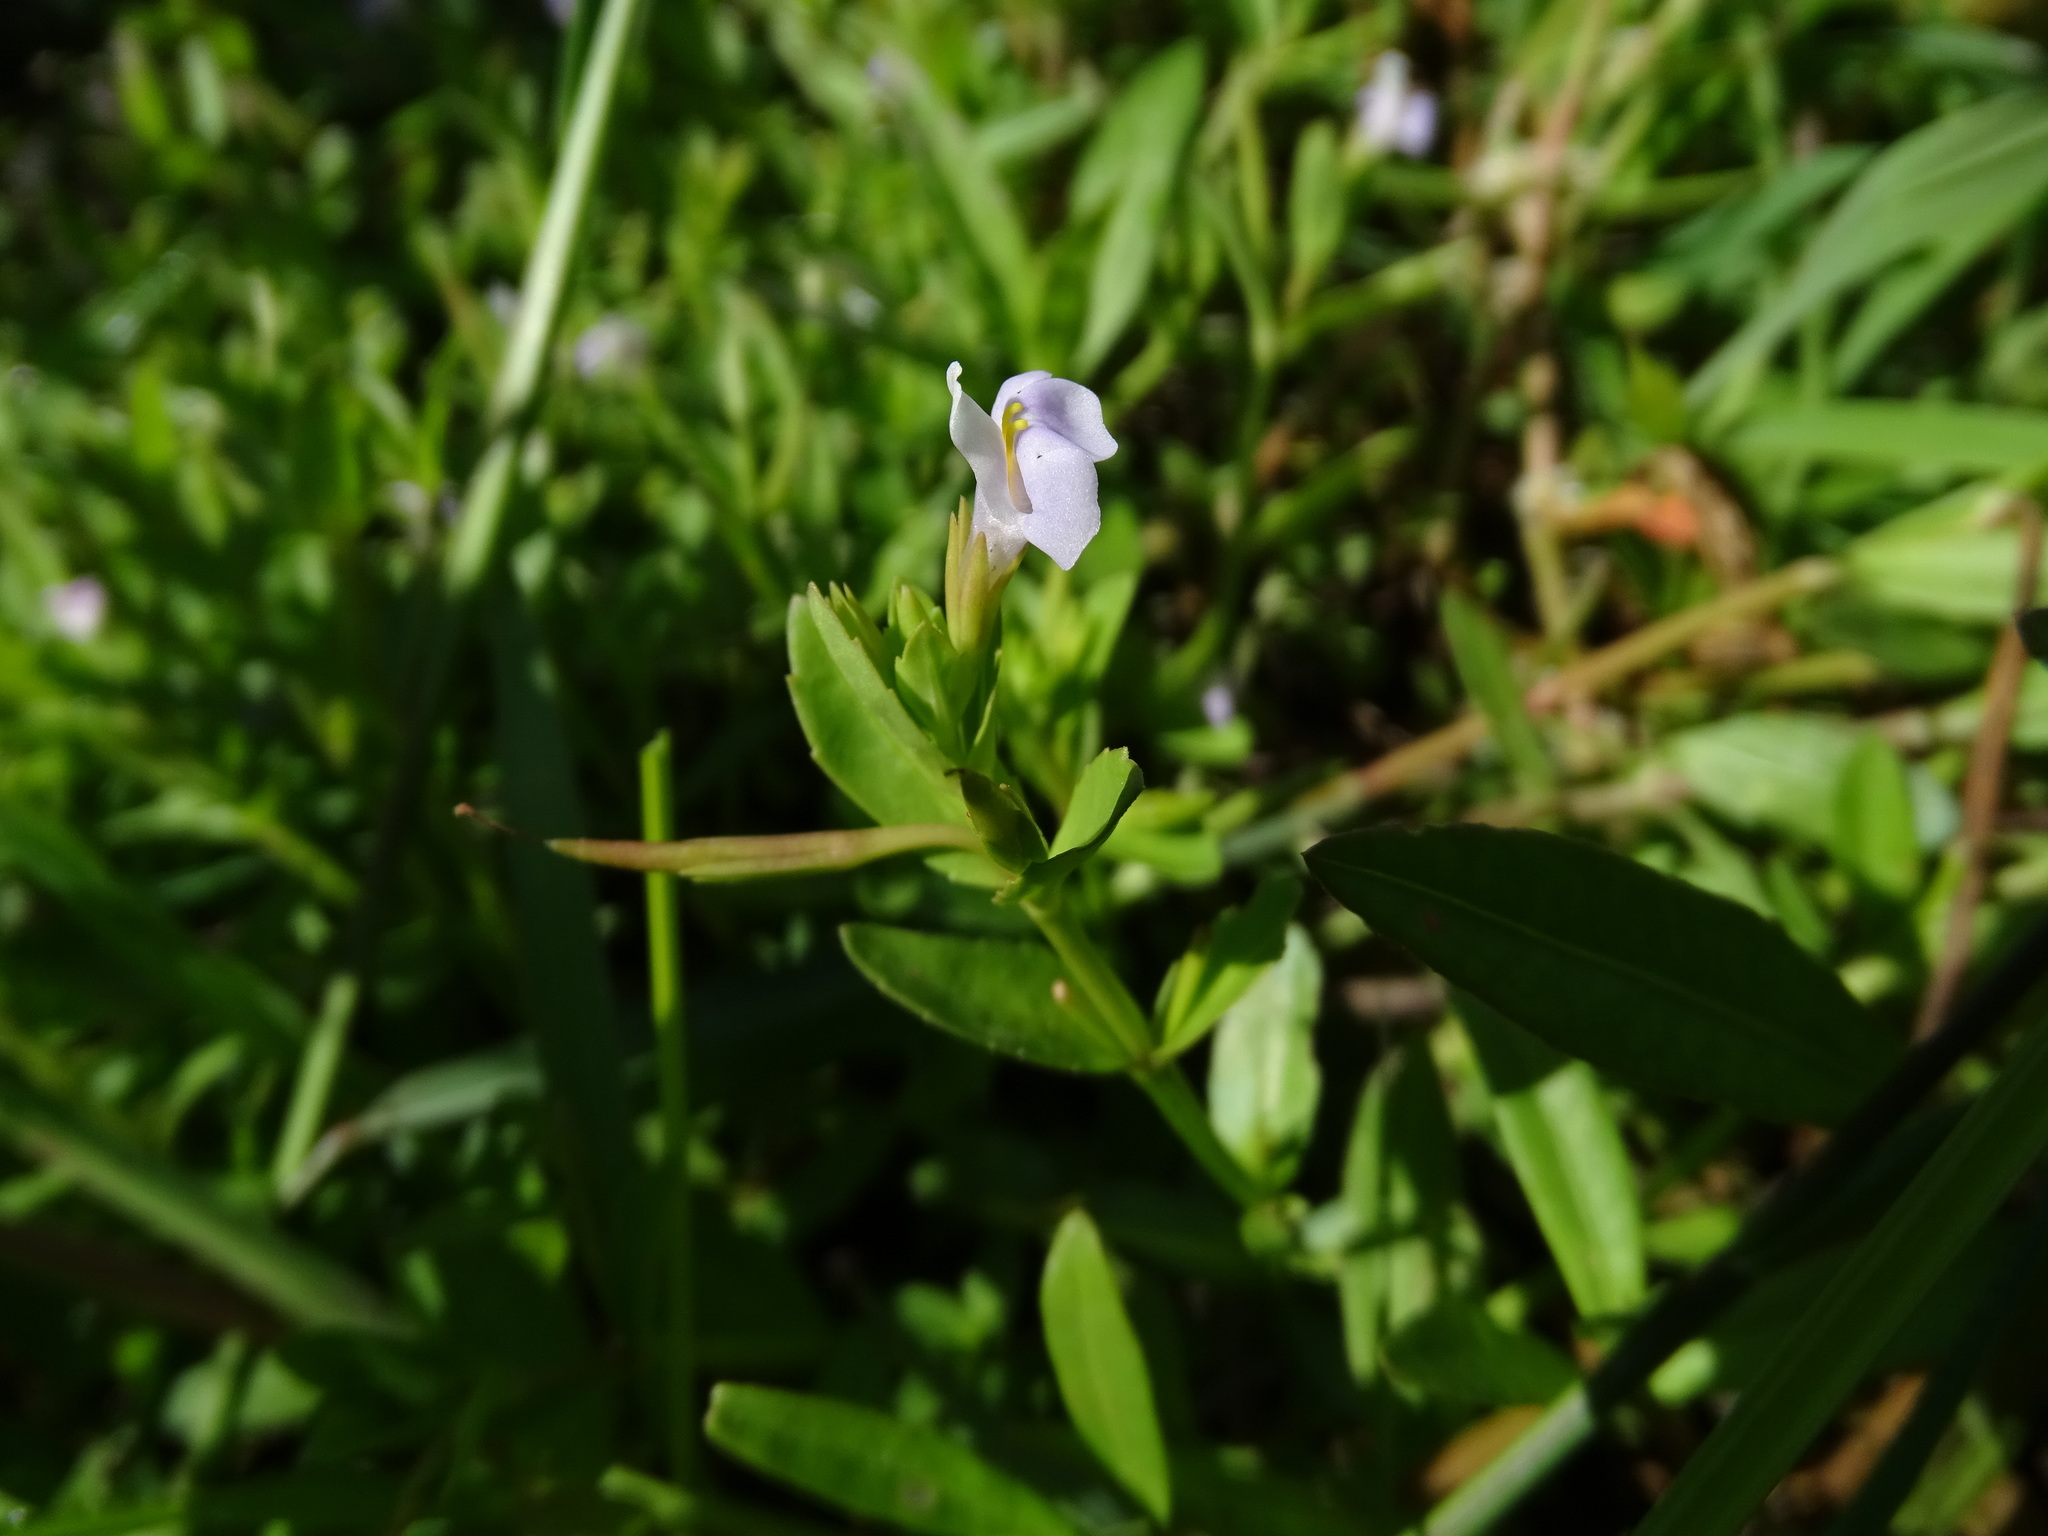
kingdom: Plantae
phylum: Tracheophyta
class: Magnoliopsida
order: Lamiales
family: Linderniaceae
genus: Bonnaya
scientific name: Bonnaya antipoda
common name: Sparrow false pimpernel
